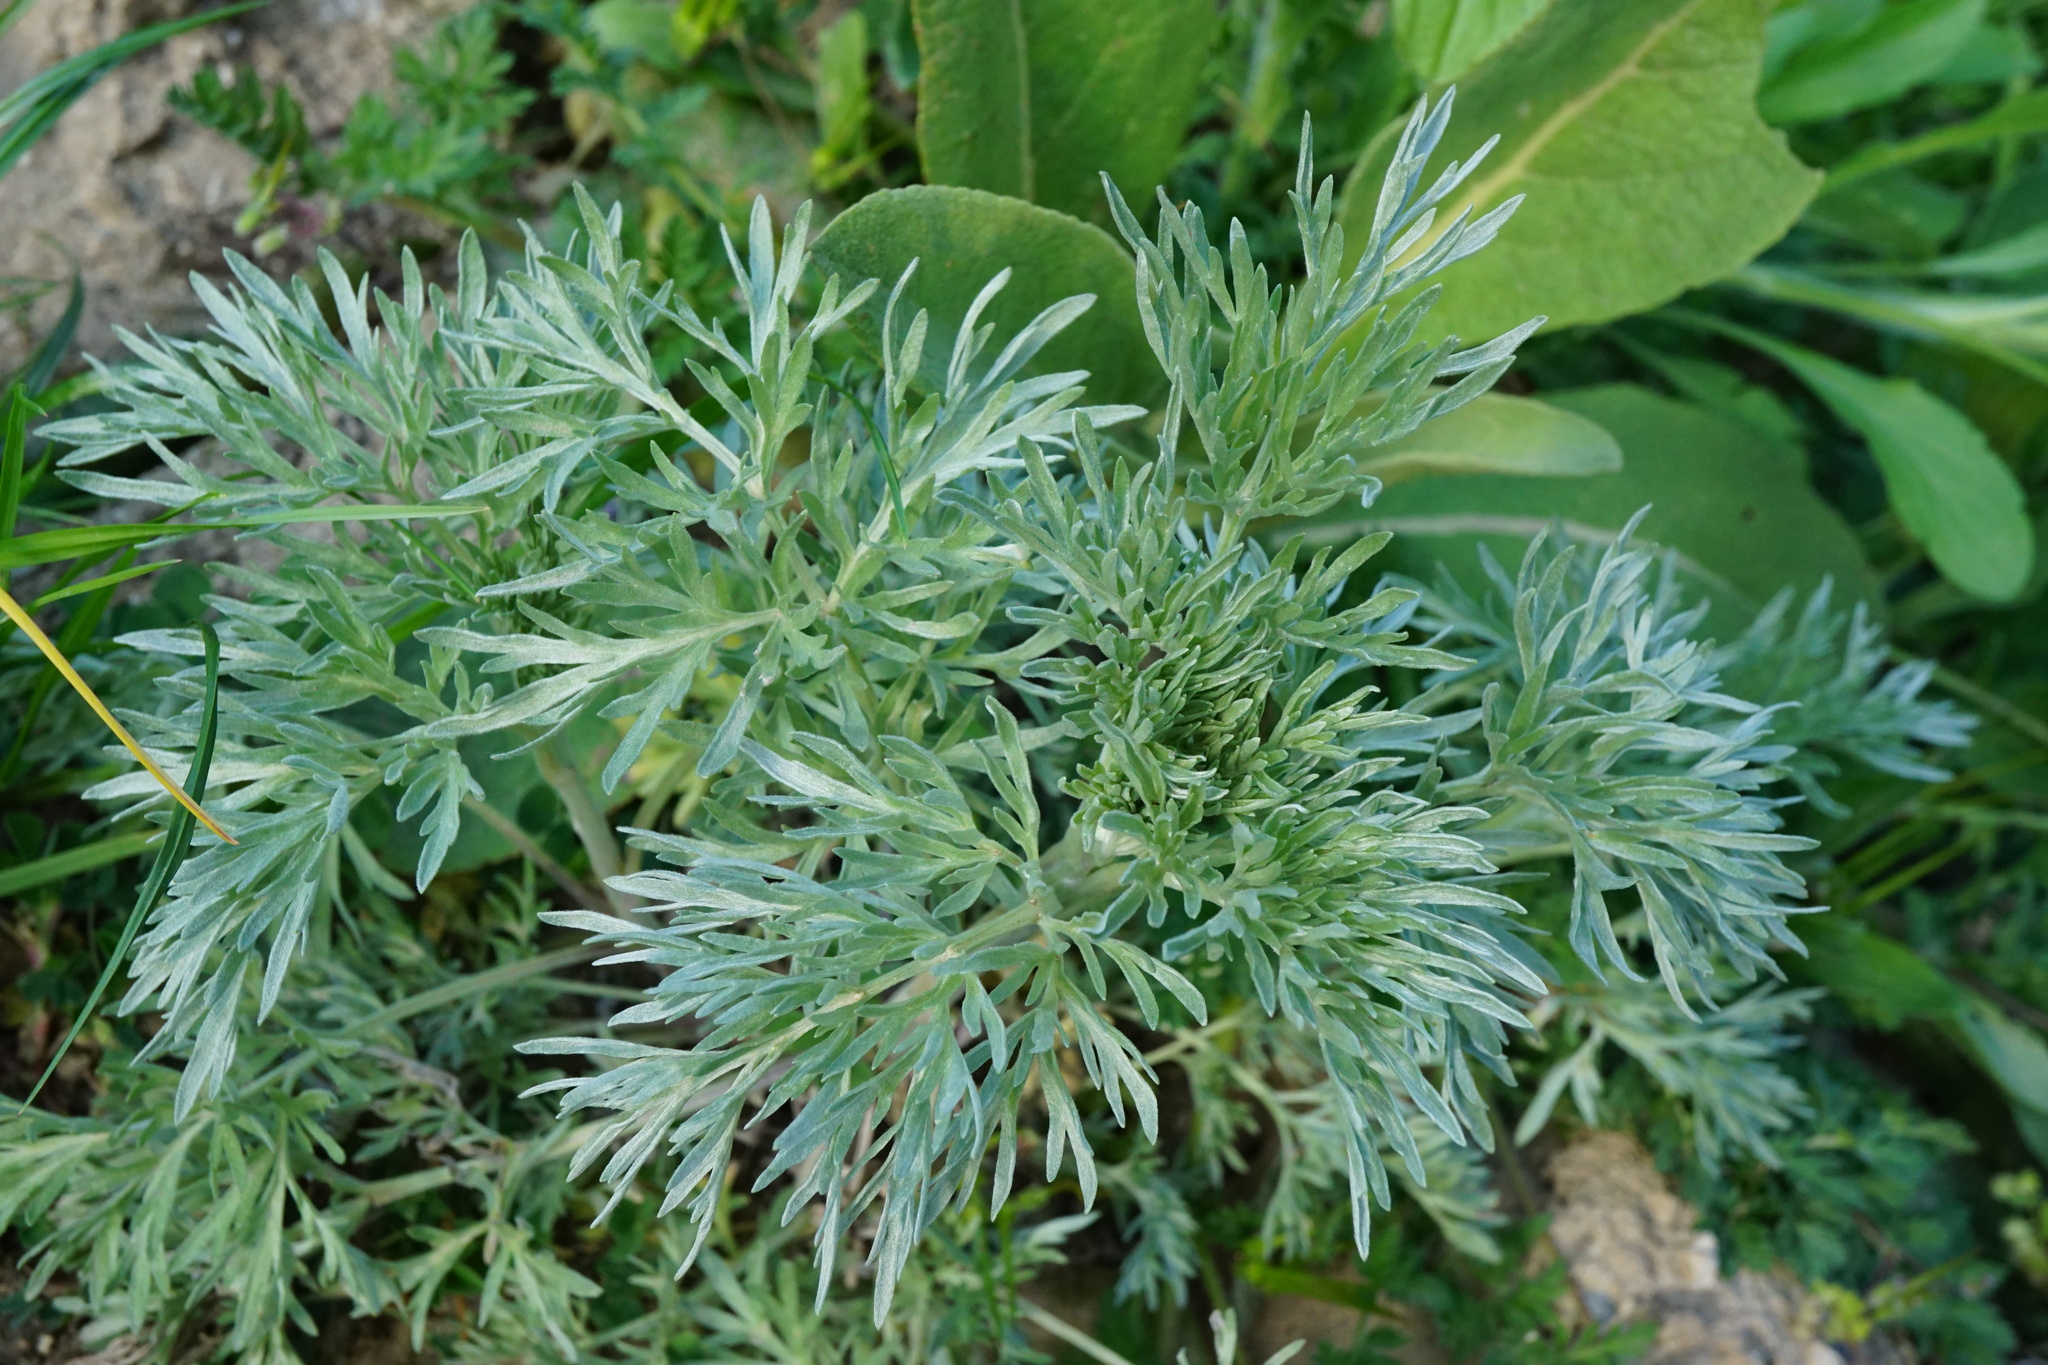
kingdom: Plantae
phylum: Tracheophyta
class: Magnoliopsida
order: Asterales
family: Asteraceae
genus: Artemisia
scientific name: Artemisia absinthium
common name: Wormwood
